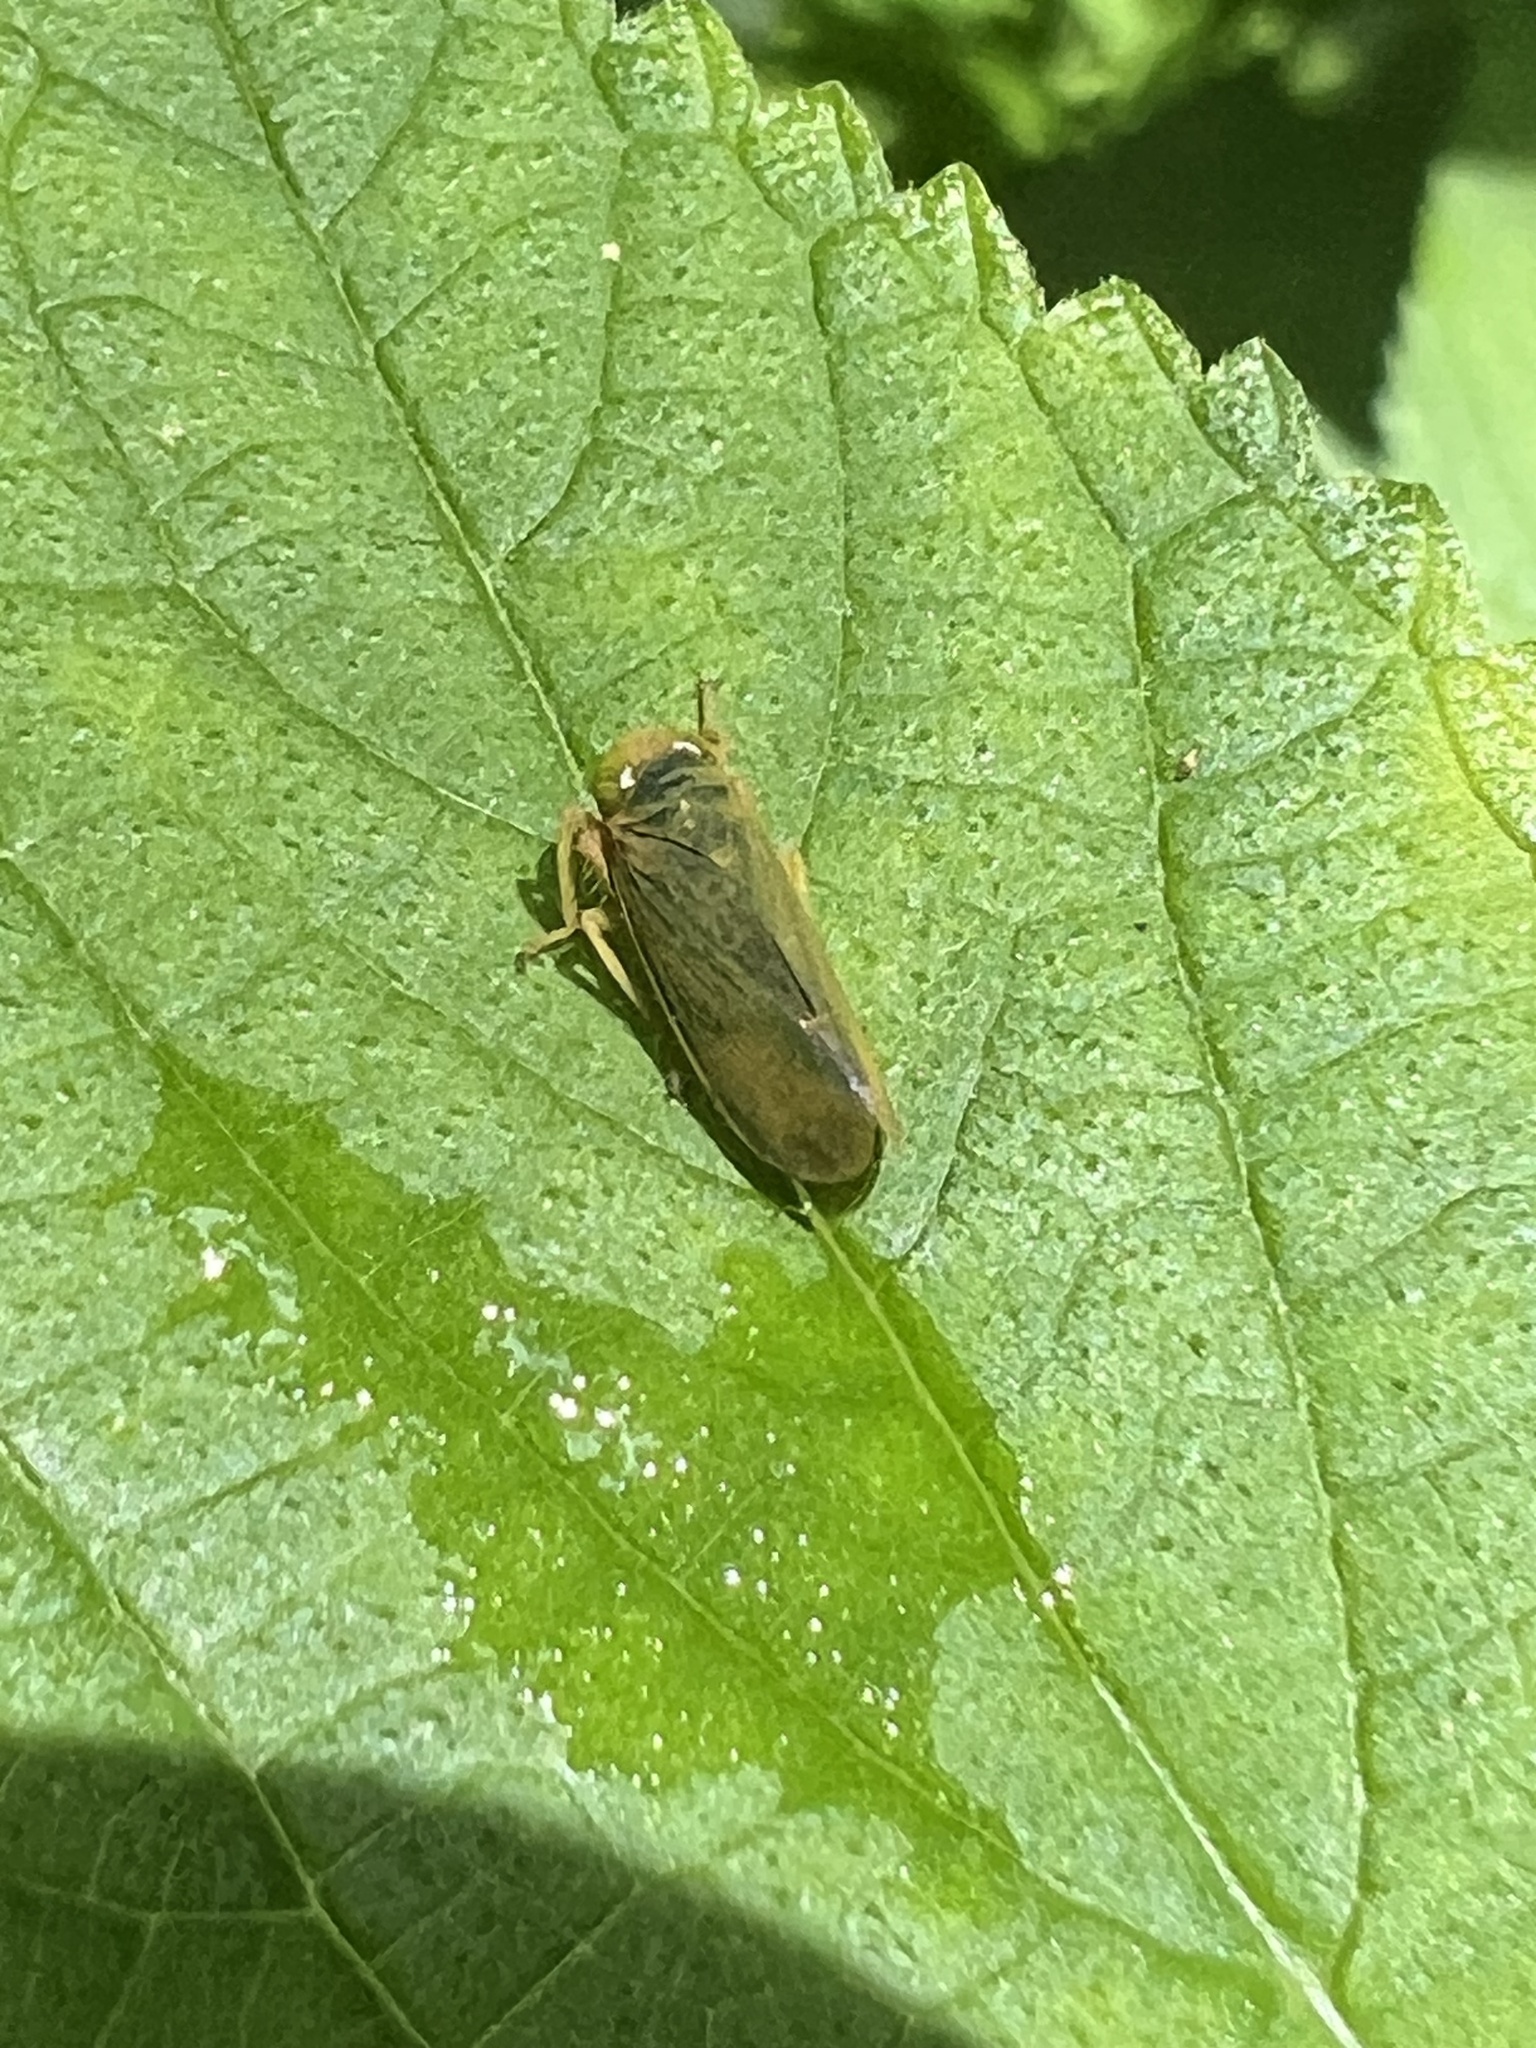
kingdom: Animalia
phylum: Arthropoda
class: Insecta
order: Hemiptera
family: Cicadellidae
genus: Jikradia
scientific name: Jikradia olitoria
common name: Coppery leafhopper
